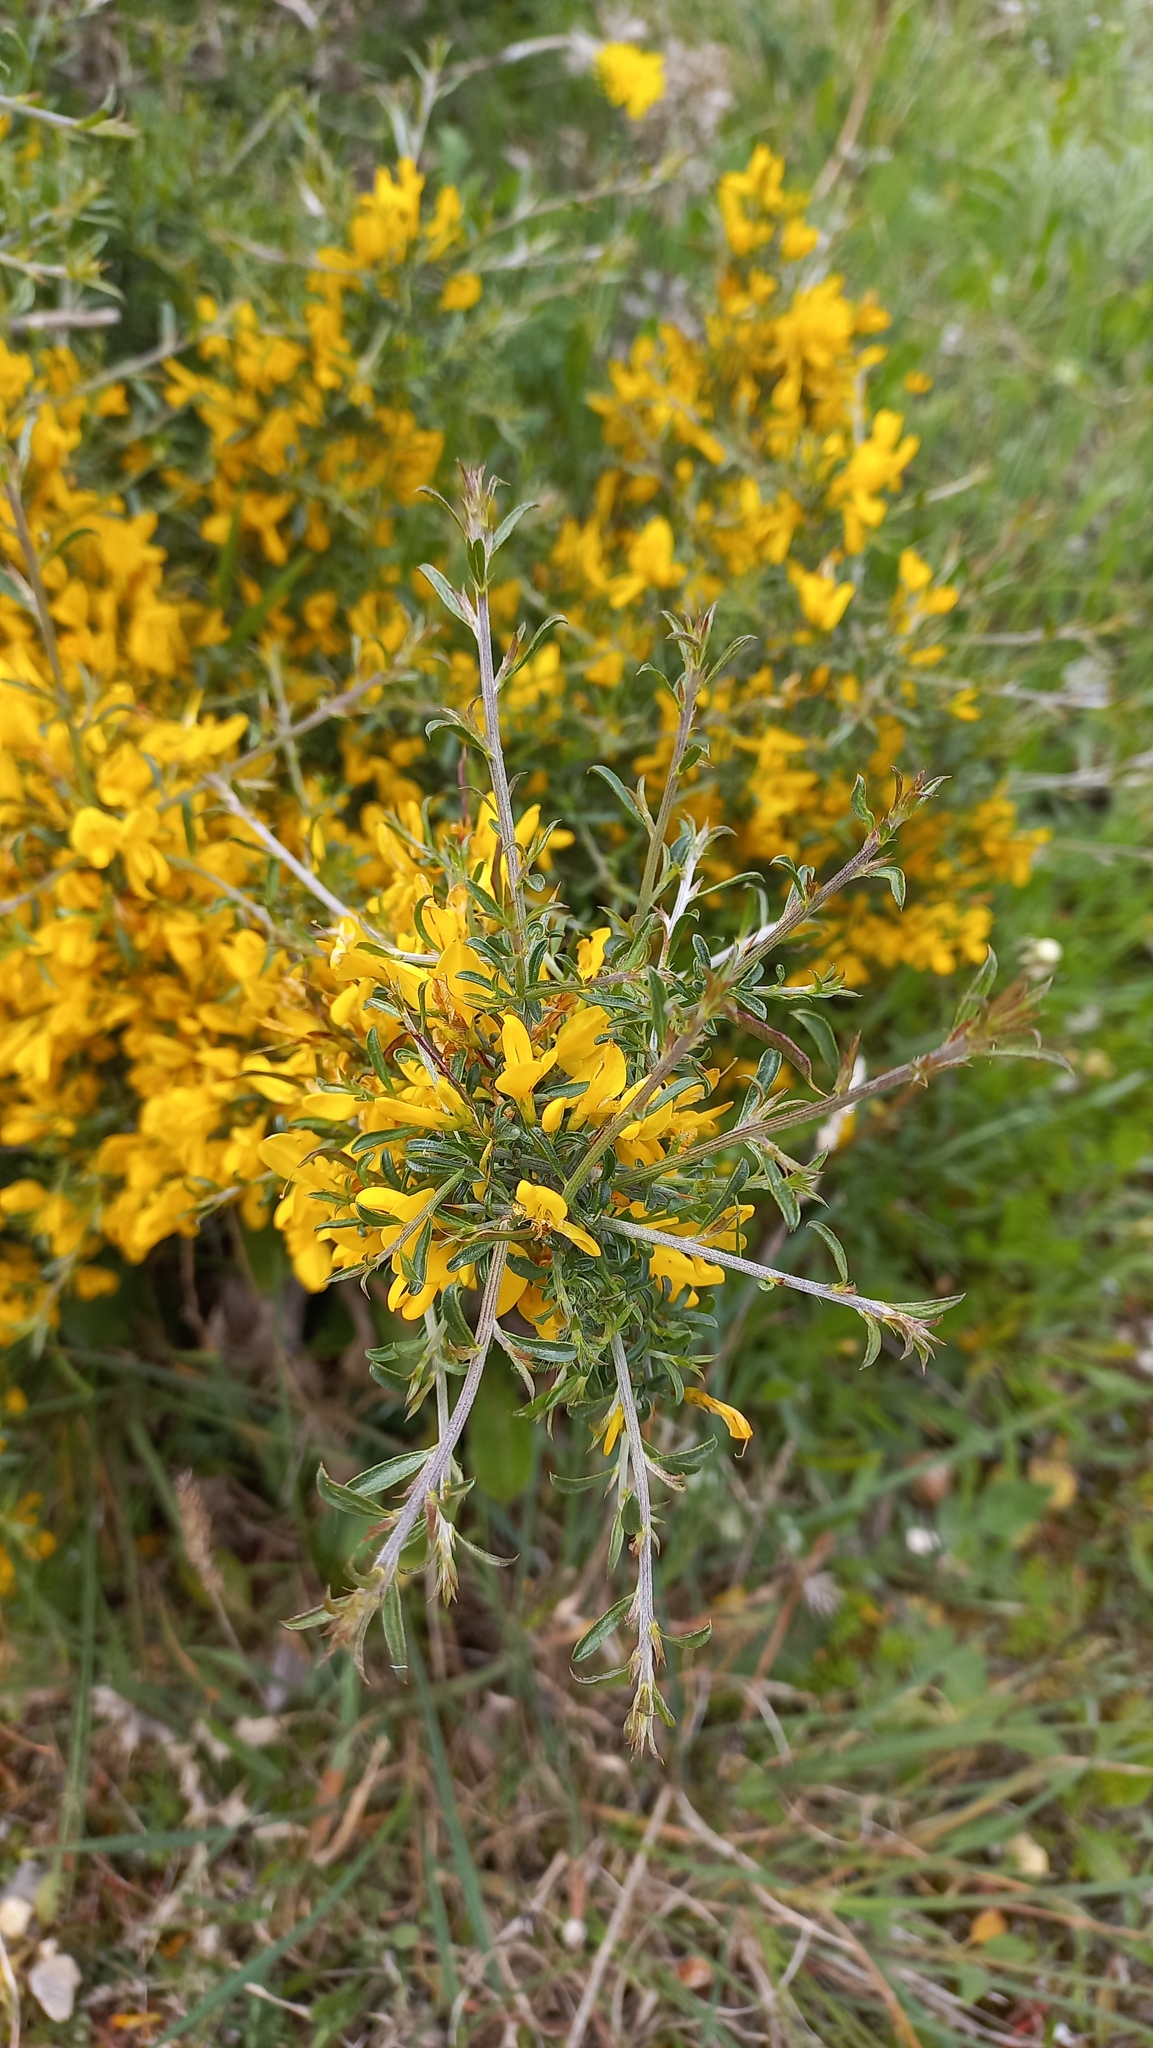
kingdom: Plantae
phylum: Tracheophyta
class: Magnoliopsida
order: Fabales
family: Fabaceae
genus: Genista
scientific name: Genista scorpius
